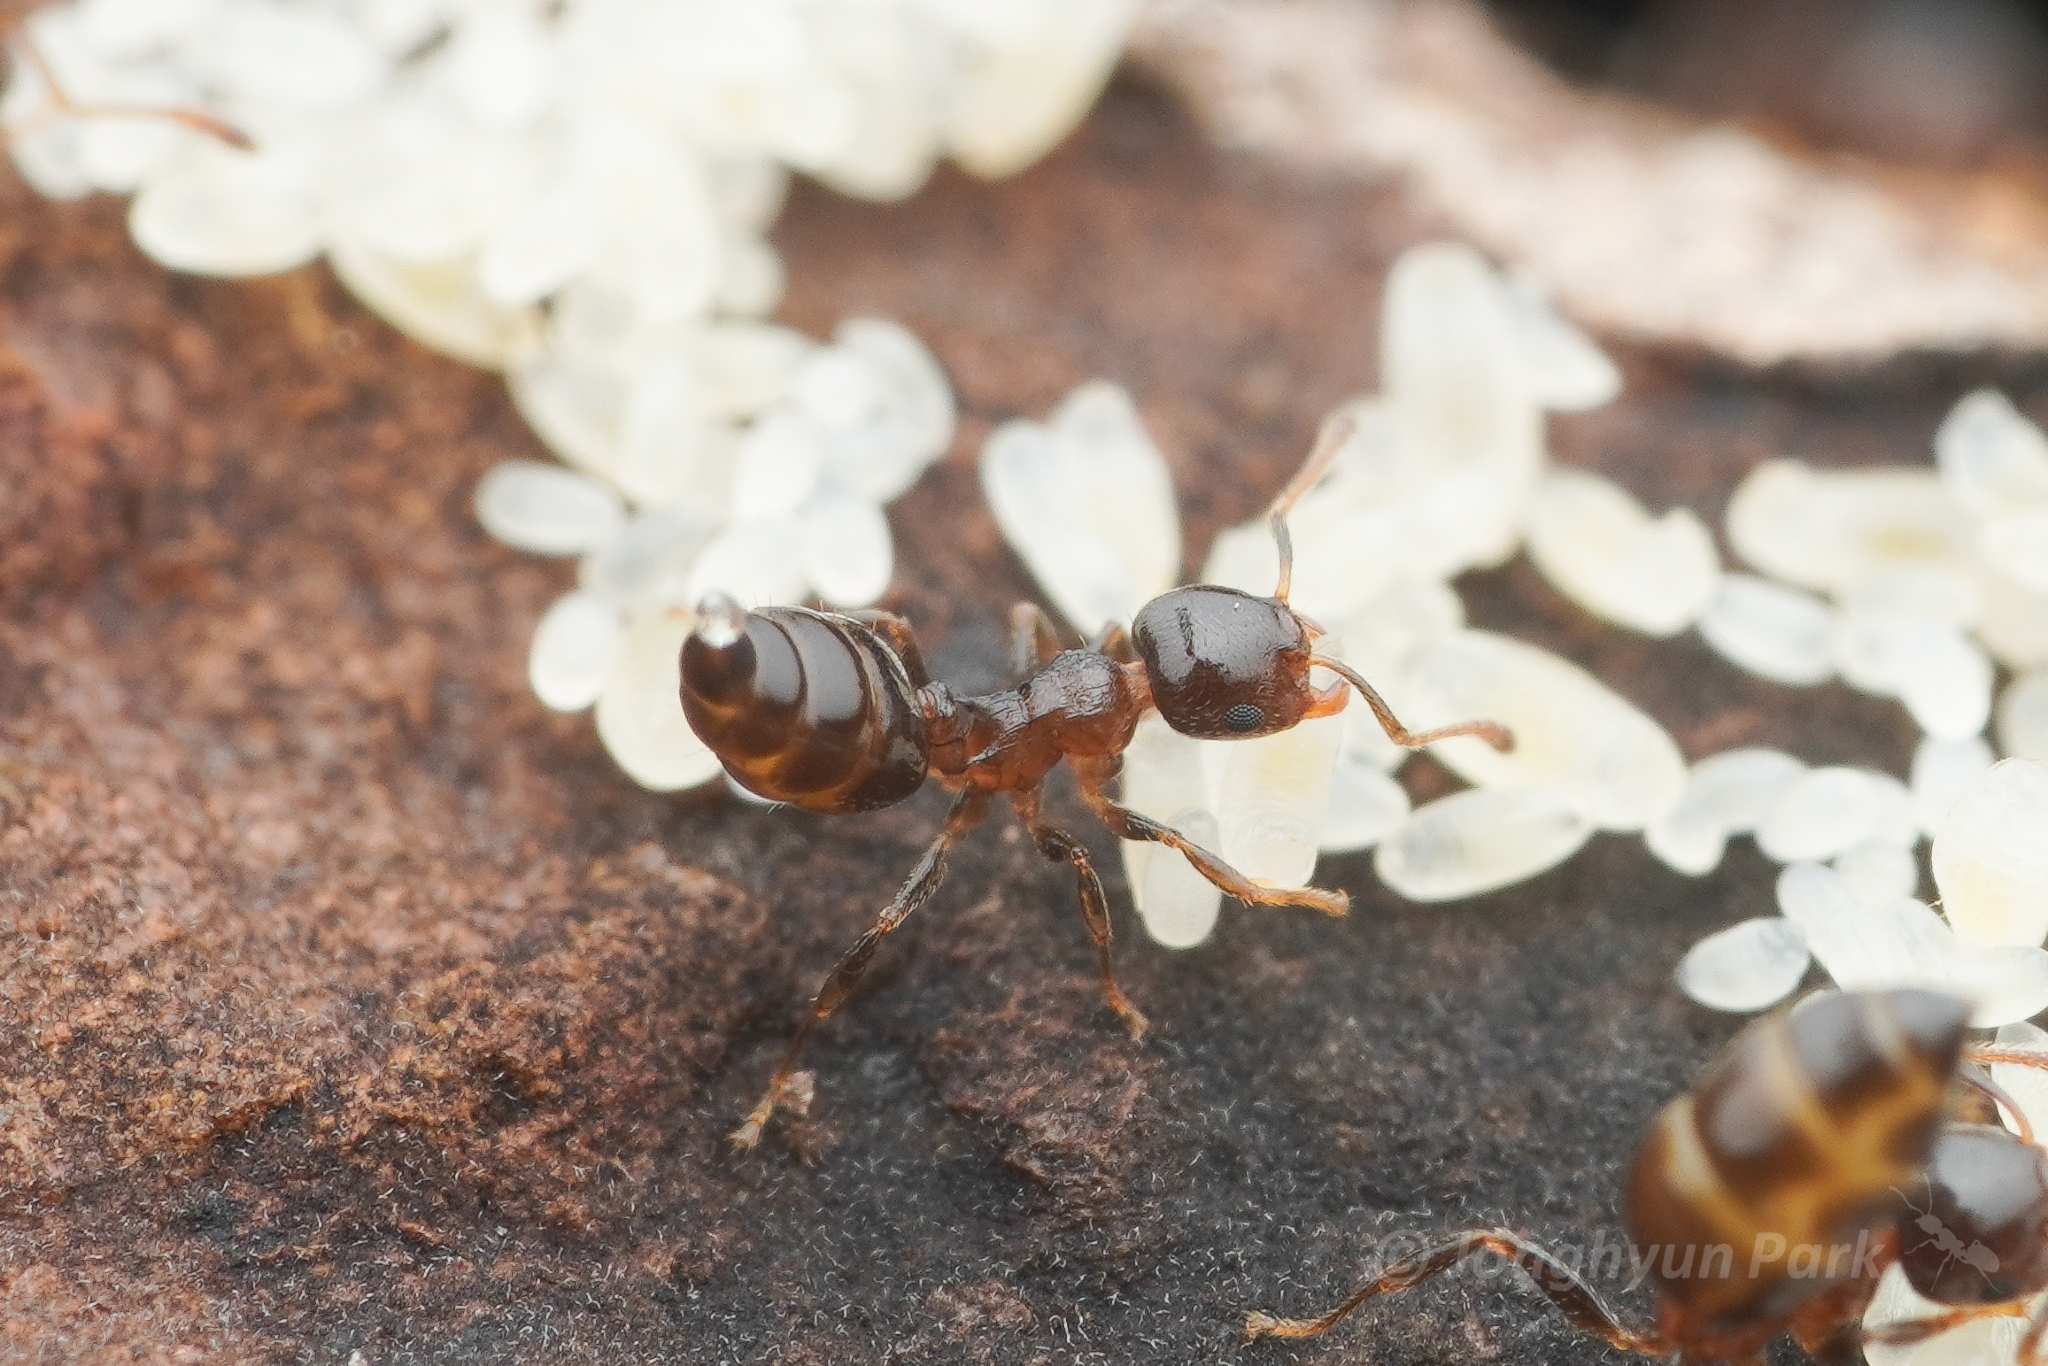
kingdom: Animalia
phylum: Arthropoda
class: Insecta
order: Hymenoptera
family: Formicidae
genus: Crematogaster
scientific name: Crematogaster
